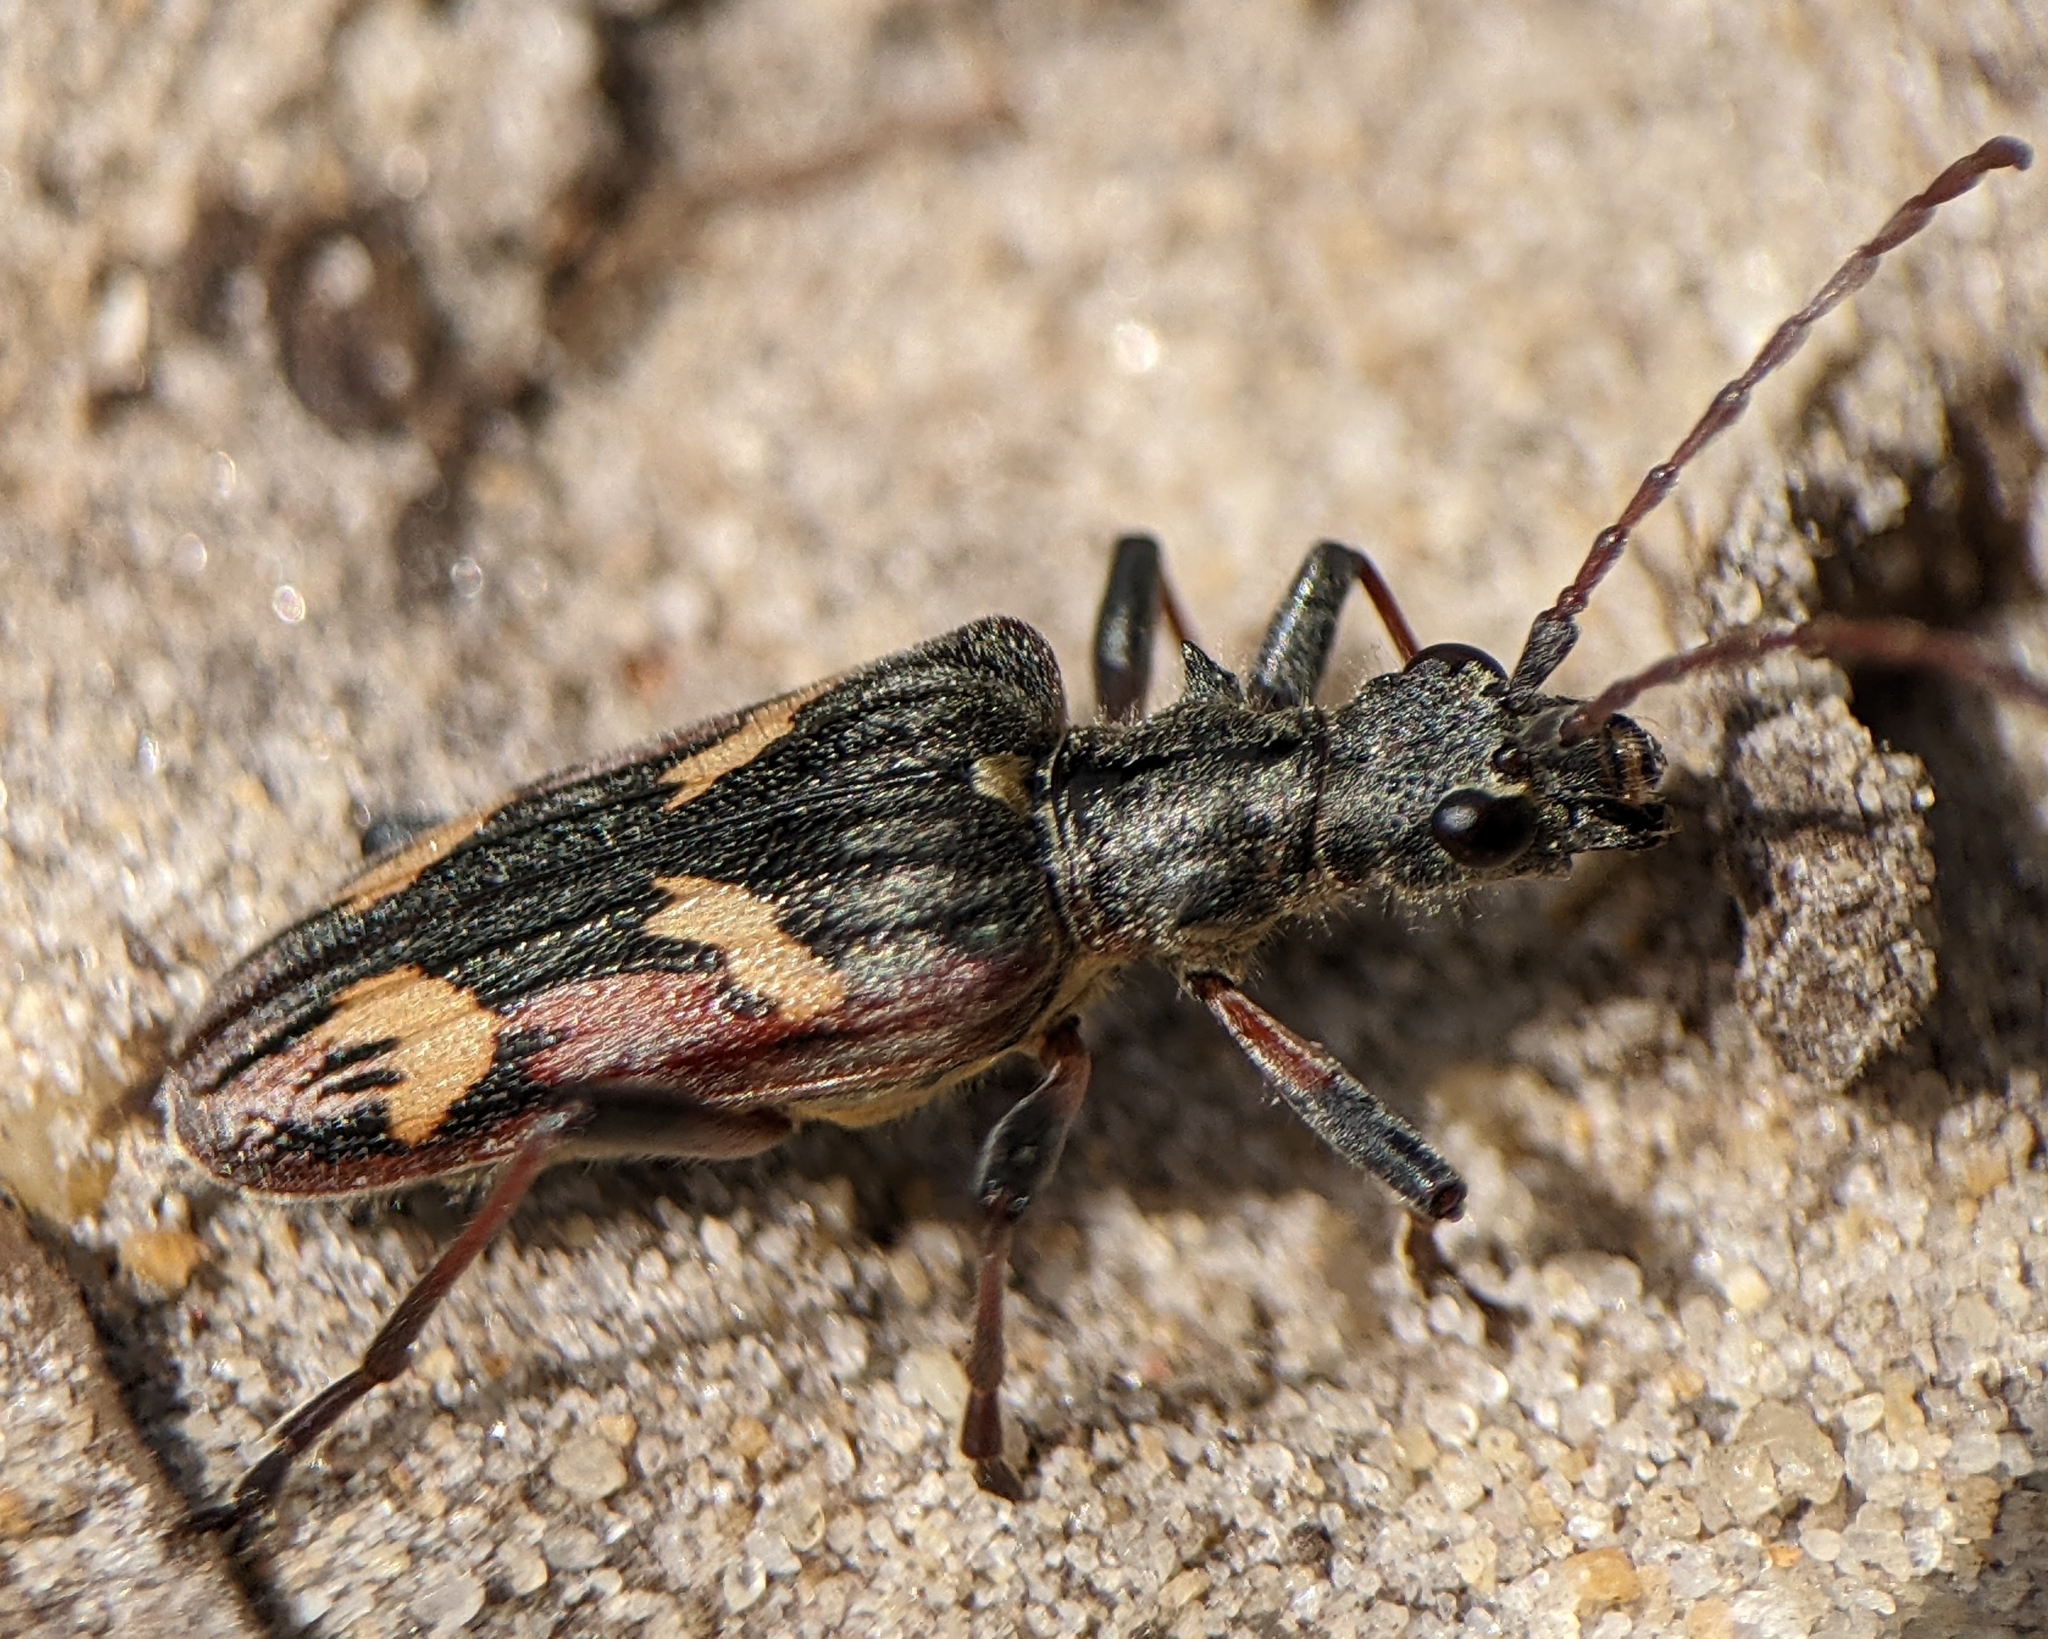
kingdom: Animalia
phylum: Arthropoda
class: Insecta
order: Coleoptera
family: Cerambycidae
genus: Rhagium
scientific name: Rhagium bifasciatum
